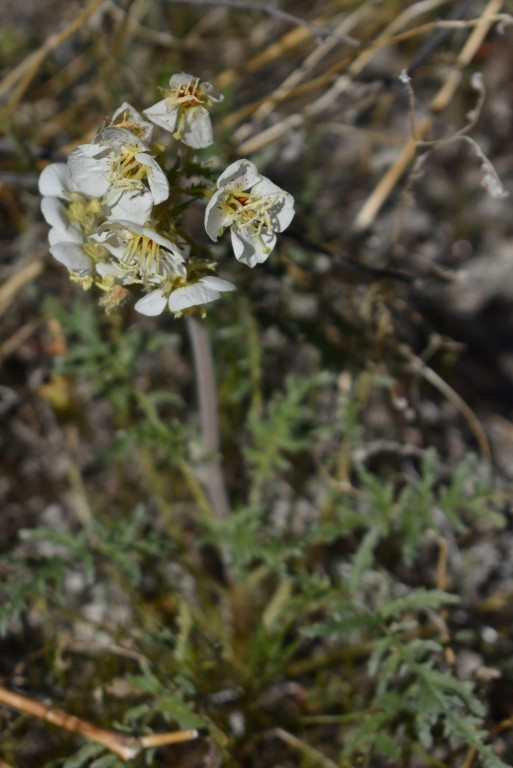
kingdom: Plantae
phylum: Tracheophyta
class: Magnoliopsida
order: Myrtales
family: Onagraceae
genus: Chylismia
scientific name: Chylismia claviformis
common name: Browneyes
